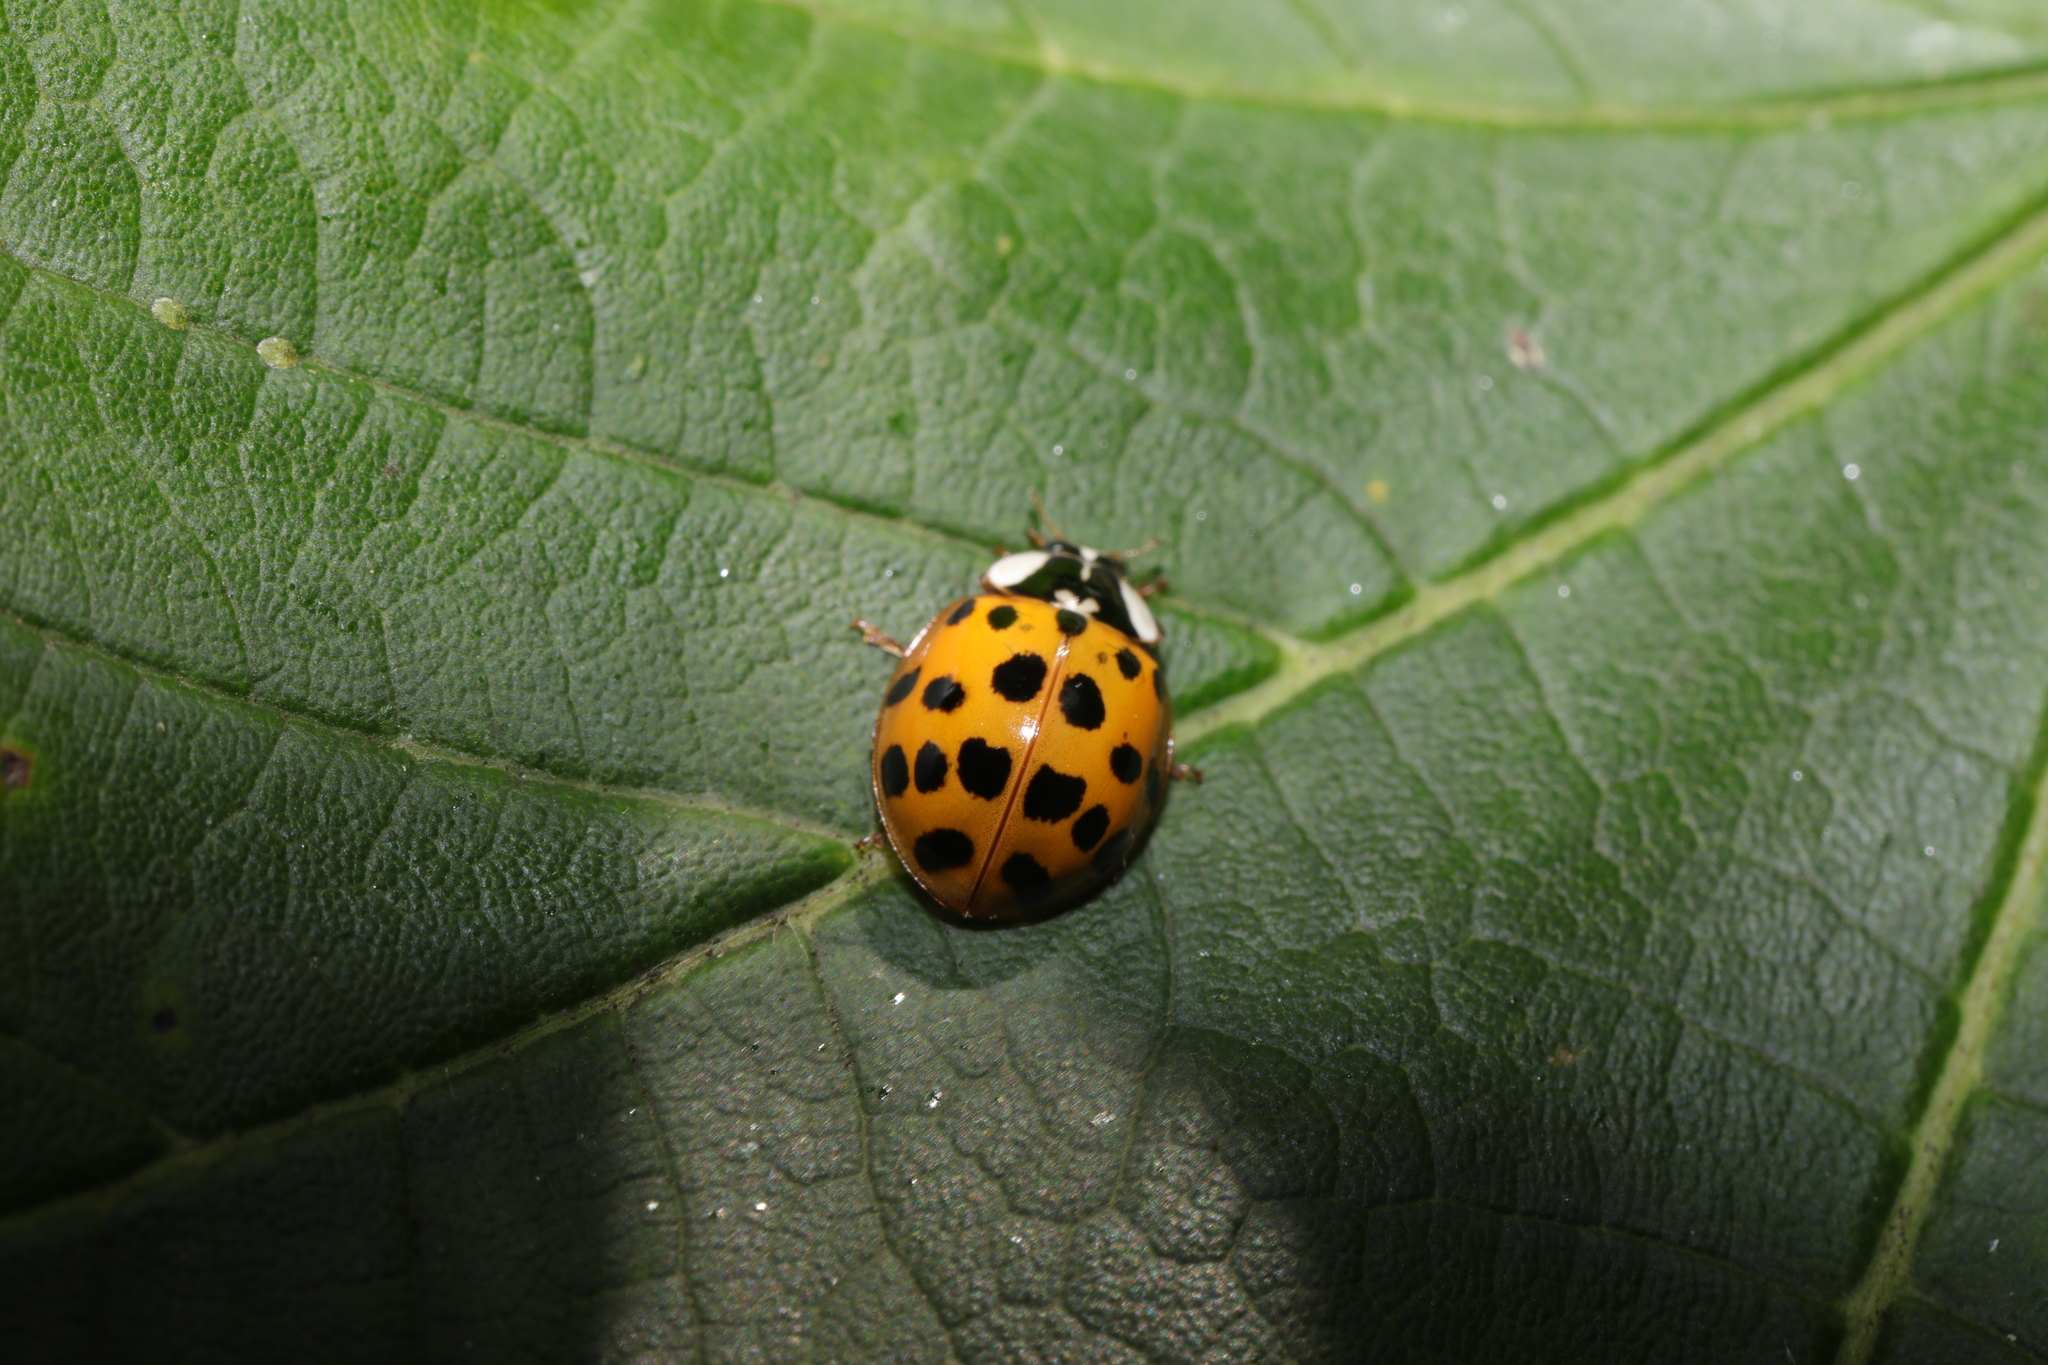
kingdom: Animalia
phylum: Arthropoda
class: Insecta
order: Coleoptera
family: Coccinellidae
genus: Harmonia
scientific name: Harmonia axyridis
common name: Harlequin ladybird
